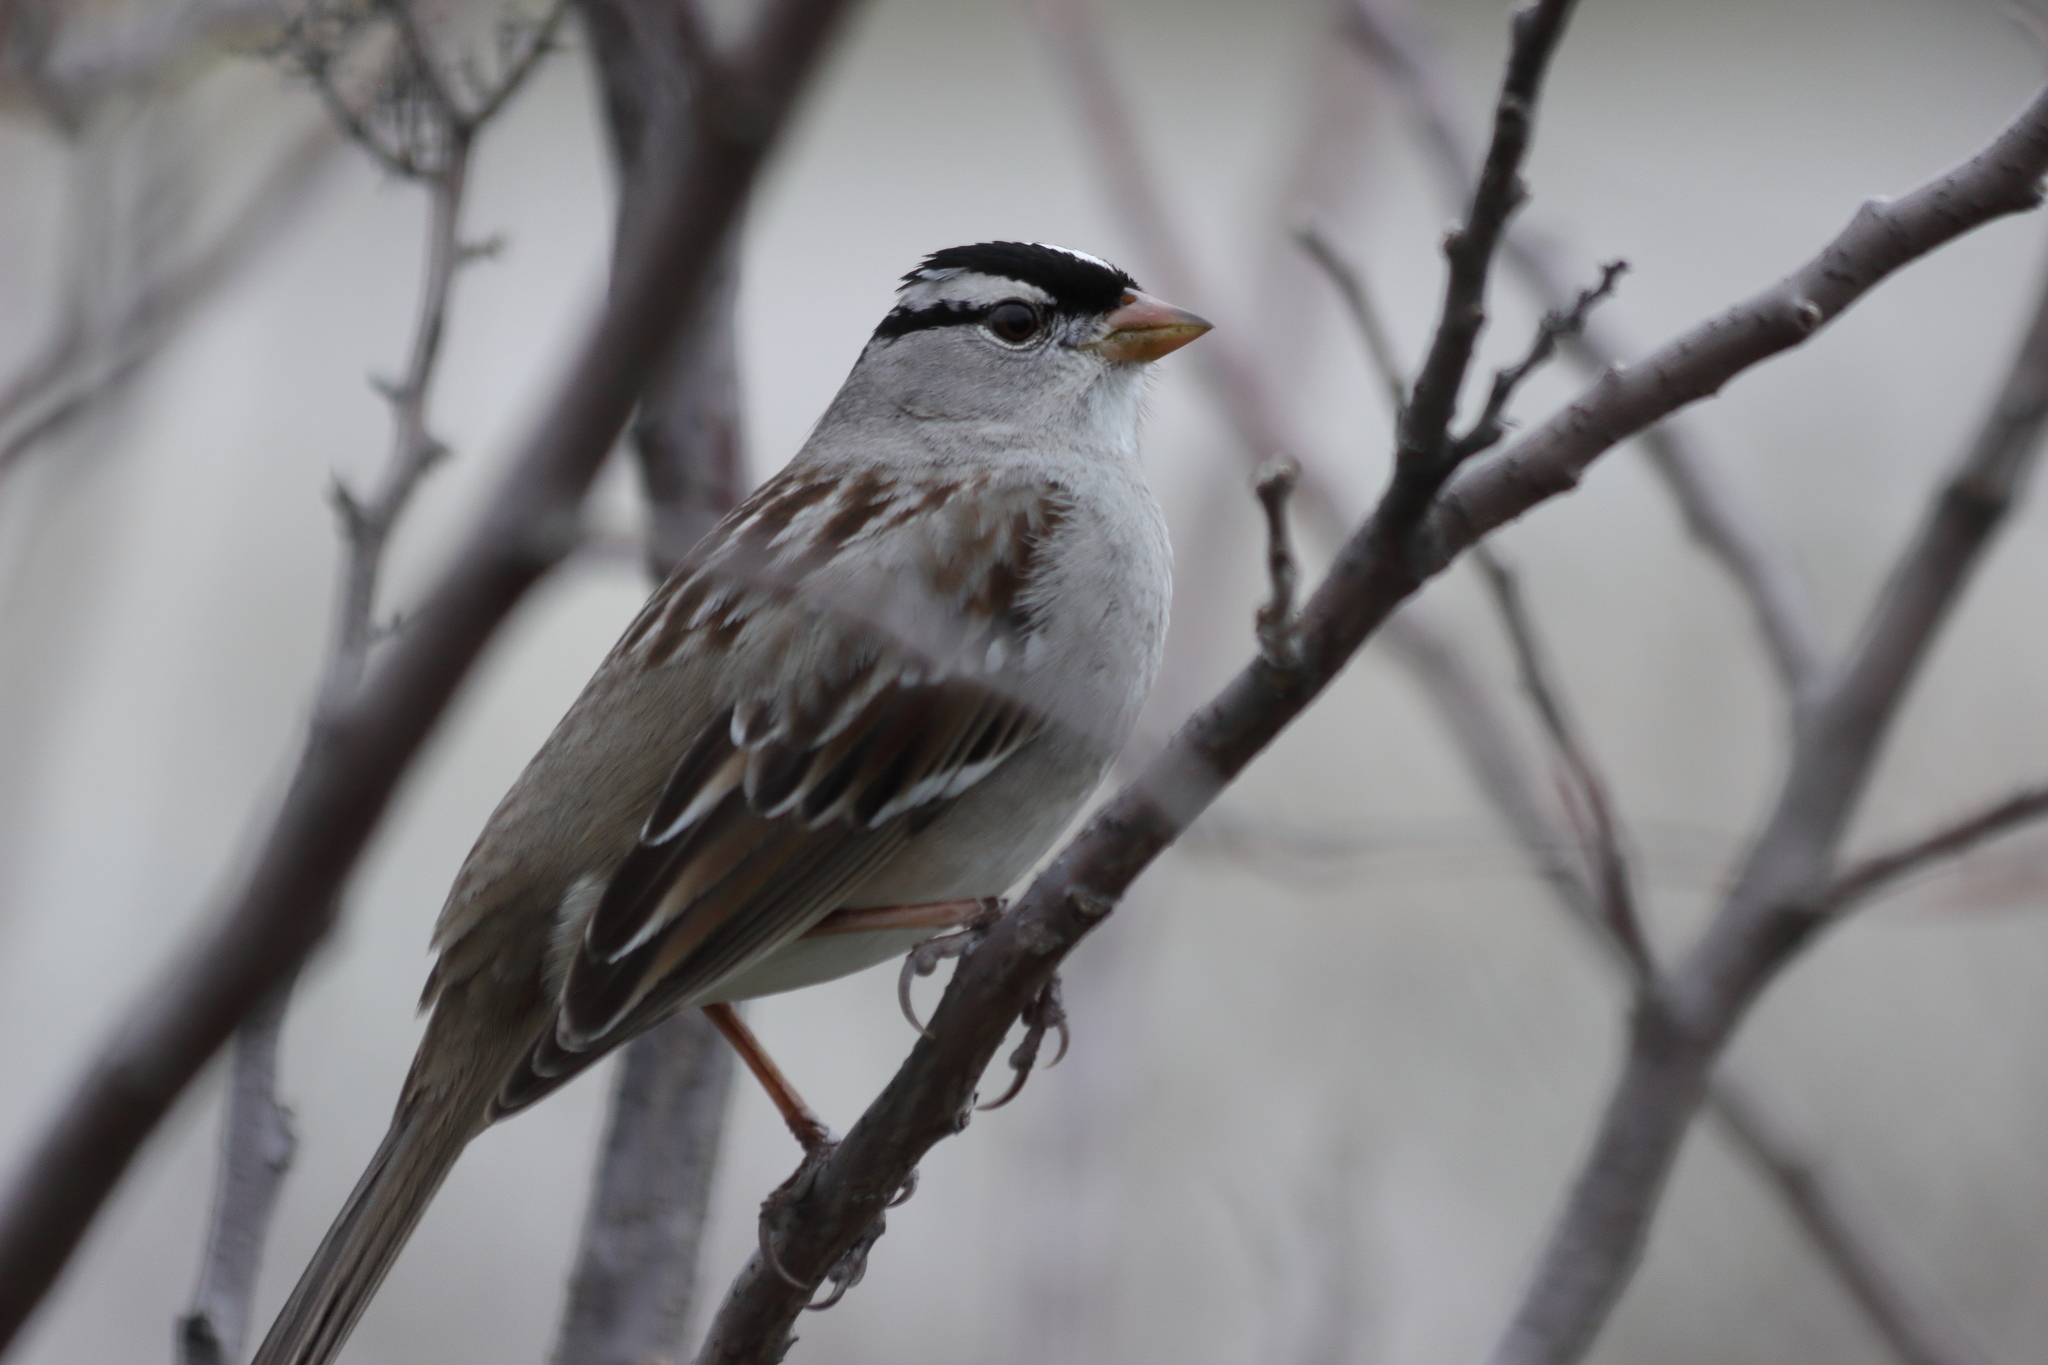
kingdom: Animalia
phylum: Chordata
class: Aves
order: Passeriformes
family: Passerellidae
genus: Zonotrichia
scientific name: Zonotrichia leucophrys
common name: White-crowned sparrow
